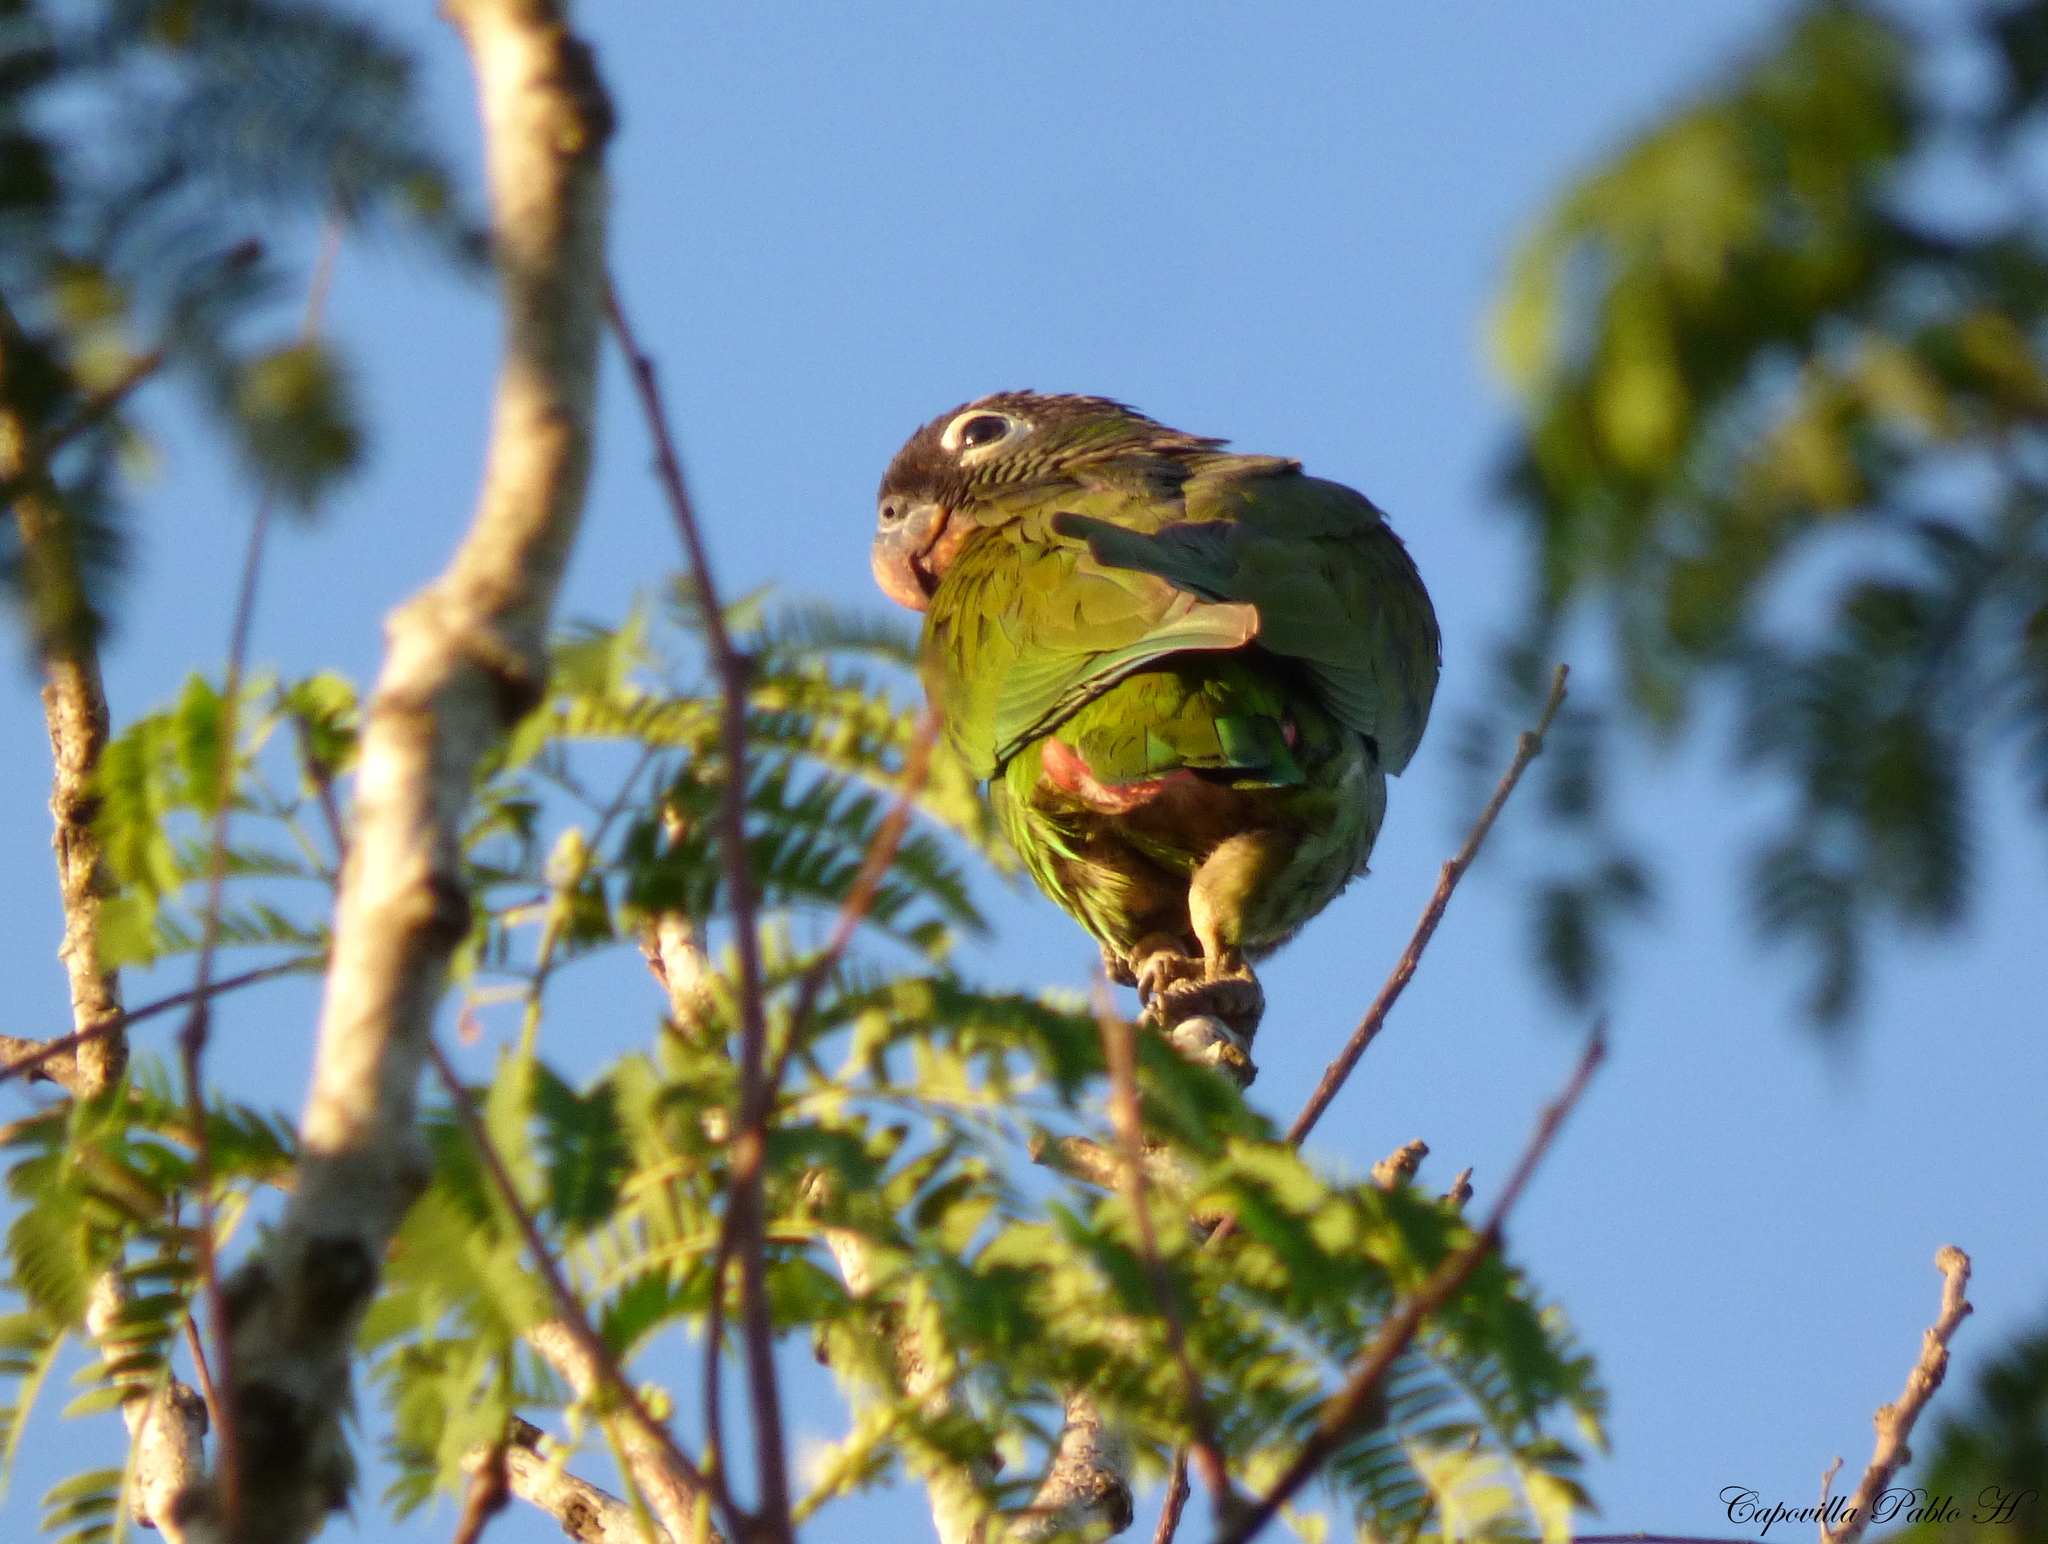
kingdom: Animalia
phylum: Chordata
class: Aves
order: Psittaciformes
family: Psittacidae
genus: Pionus
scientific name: Pionus maximiliani
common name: Scaly-headed parrot
